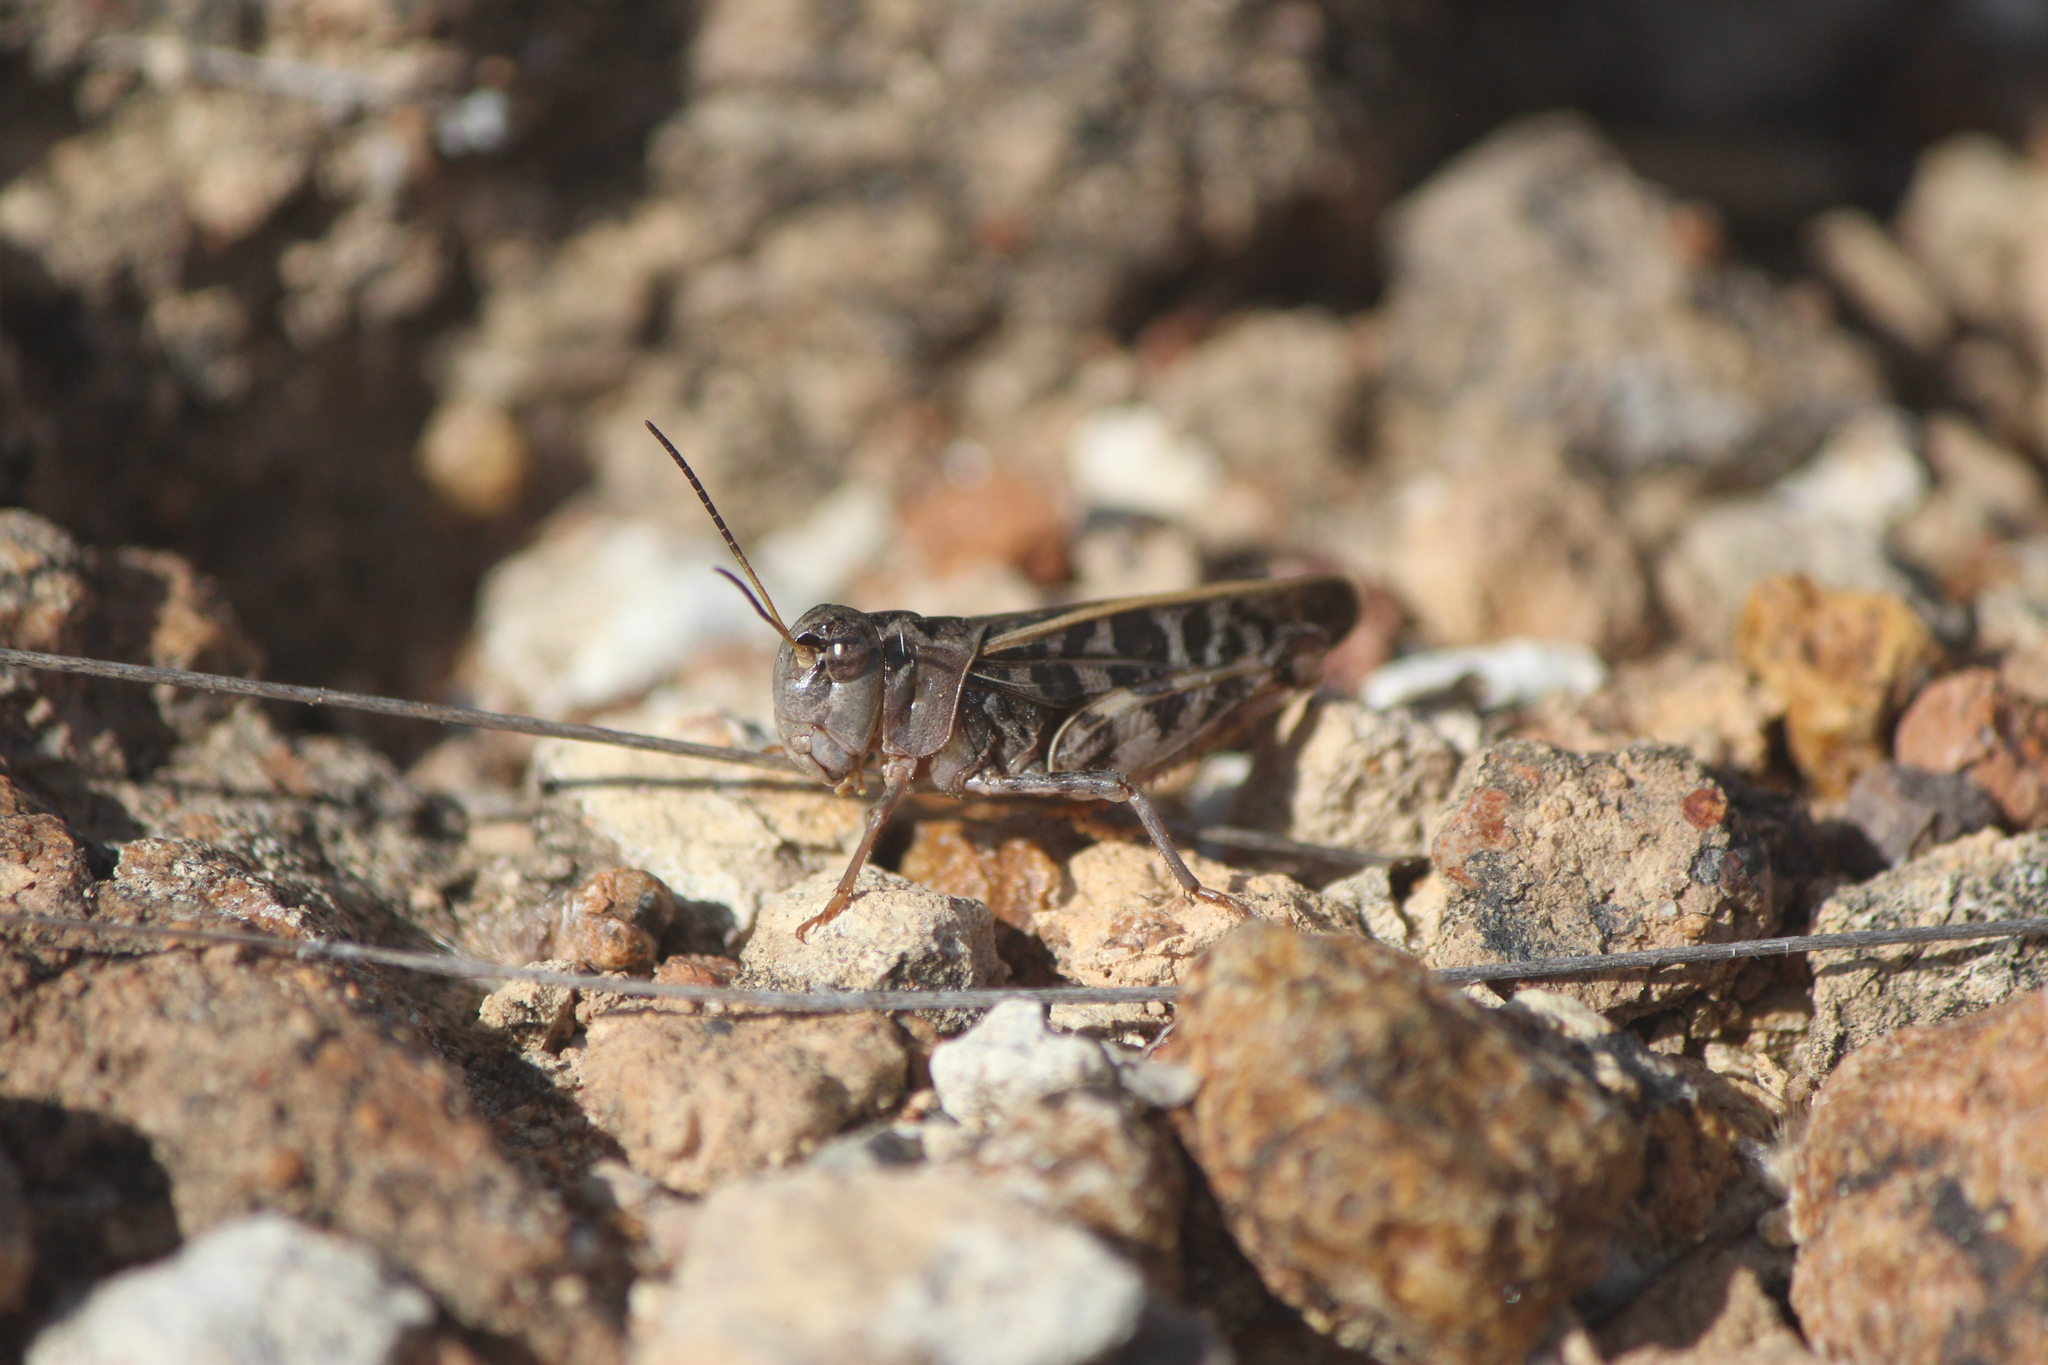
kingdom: Animalia
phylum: Arthropoda
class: Insecta
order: Orthoptera
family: Acrididae
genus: Hippiscus
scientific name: Hippiscus ocelote
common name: Wrinkled grasshopper
